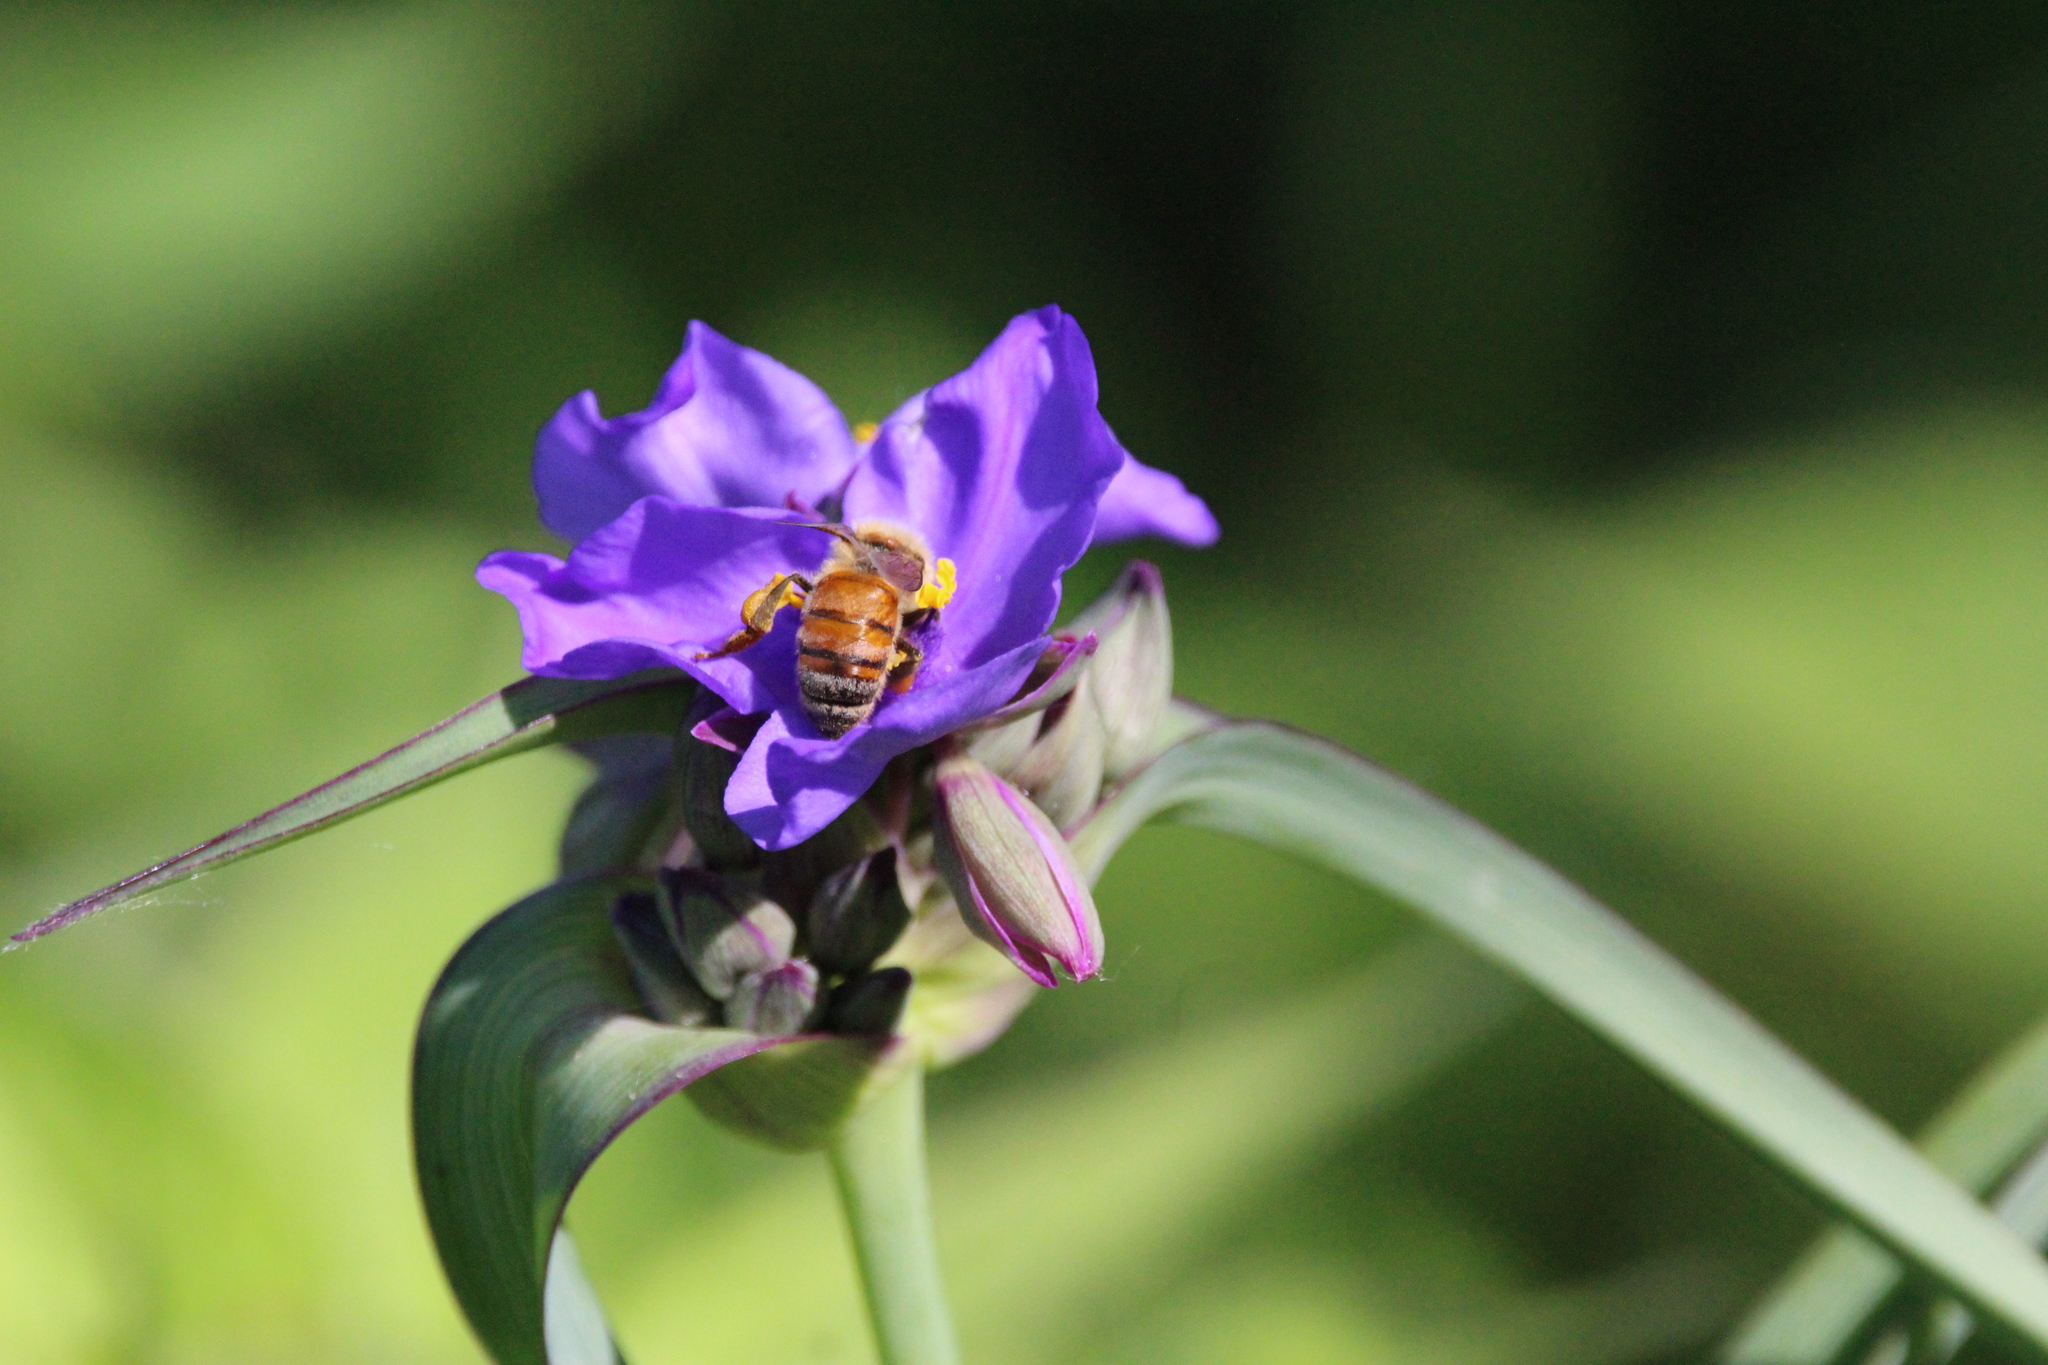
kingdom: Animalia
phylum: Arthropoda
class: Insecta
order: Hymenoptera
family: Apidae
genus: Apis
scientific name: Apis mellifera
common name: Honey bee
